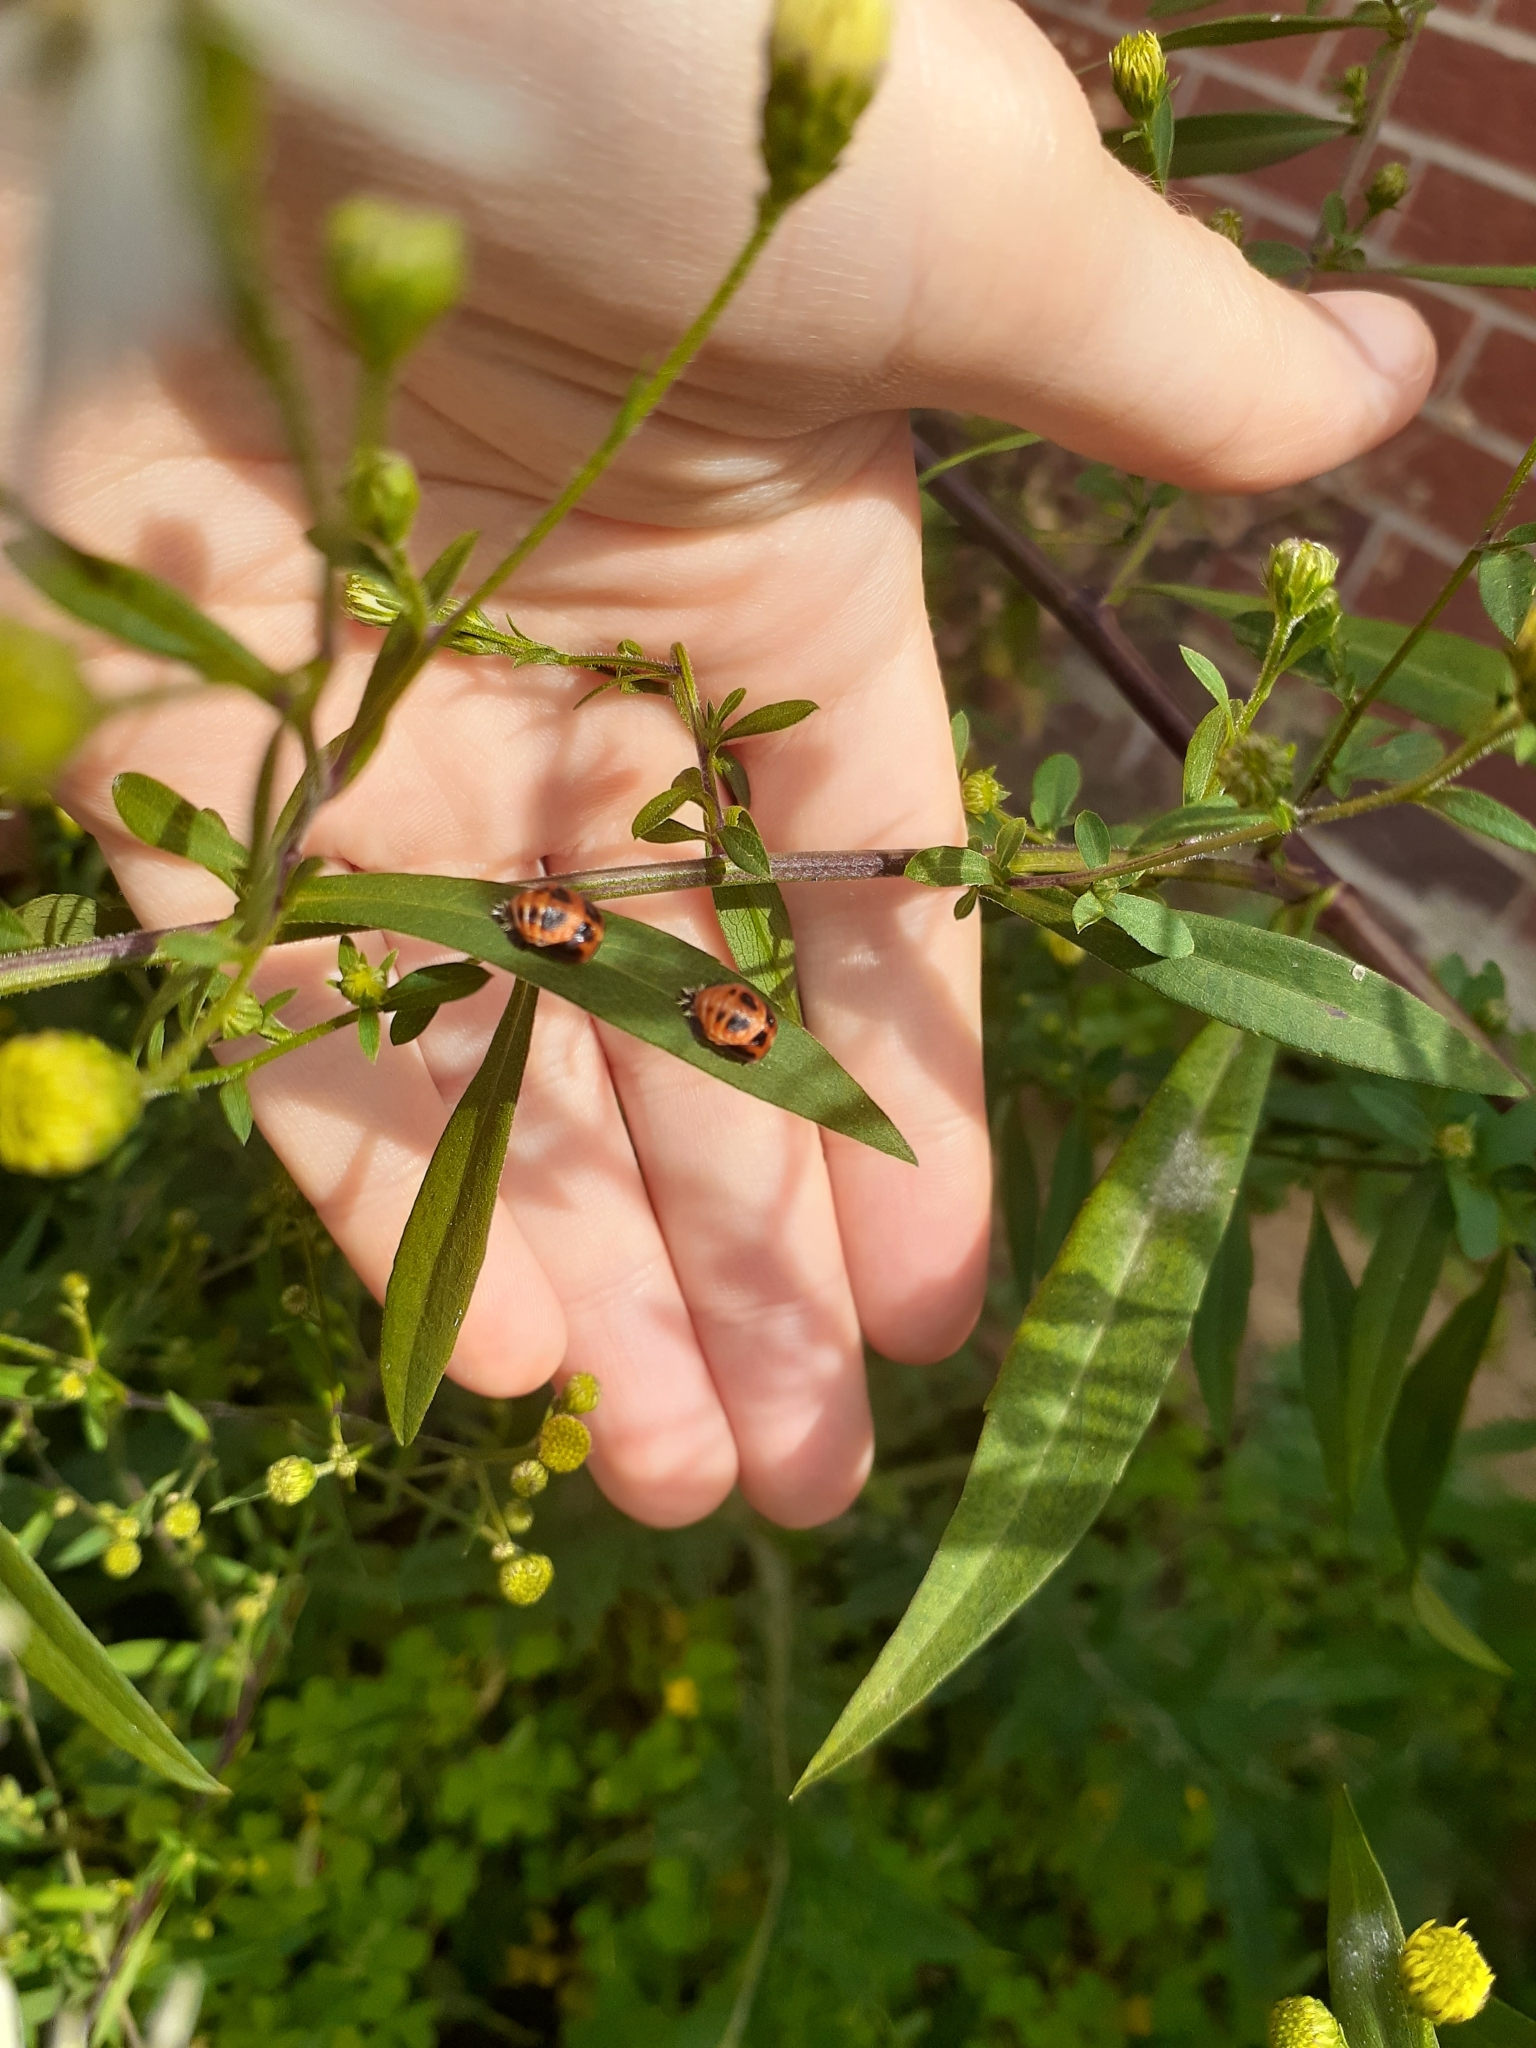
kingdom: Animalia
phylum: Arthropoda
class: Insecta
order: Coleoptera
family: Coccinellidae
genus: Harmonia
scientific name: Harmonia axyridis
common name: Harlequin ladybird
